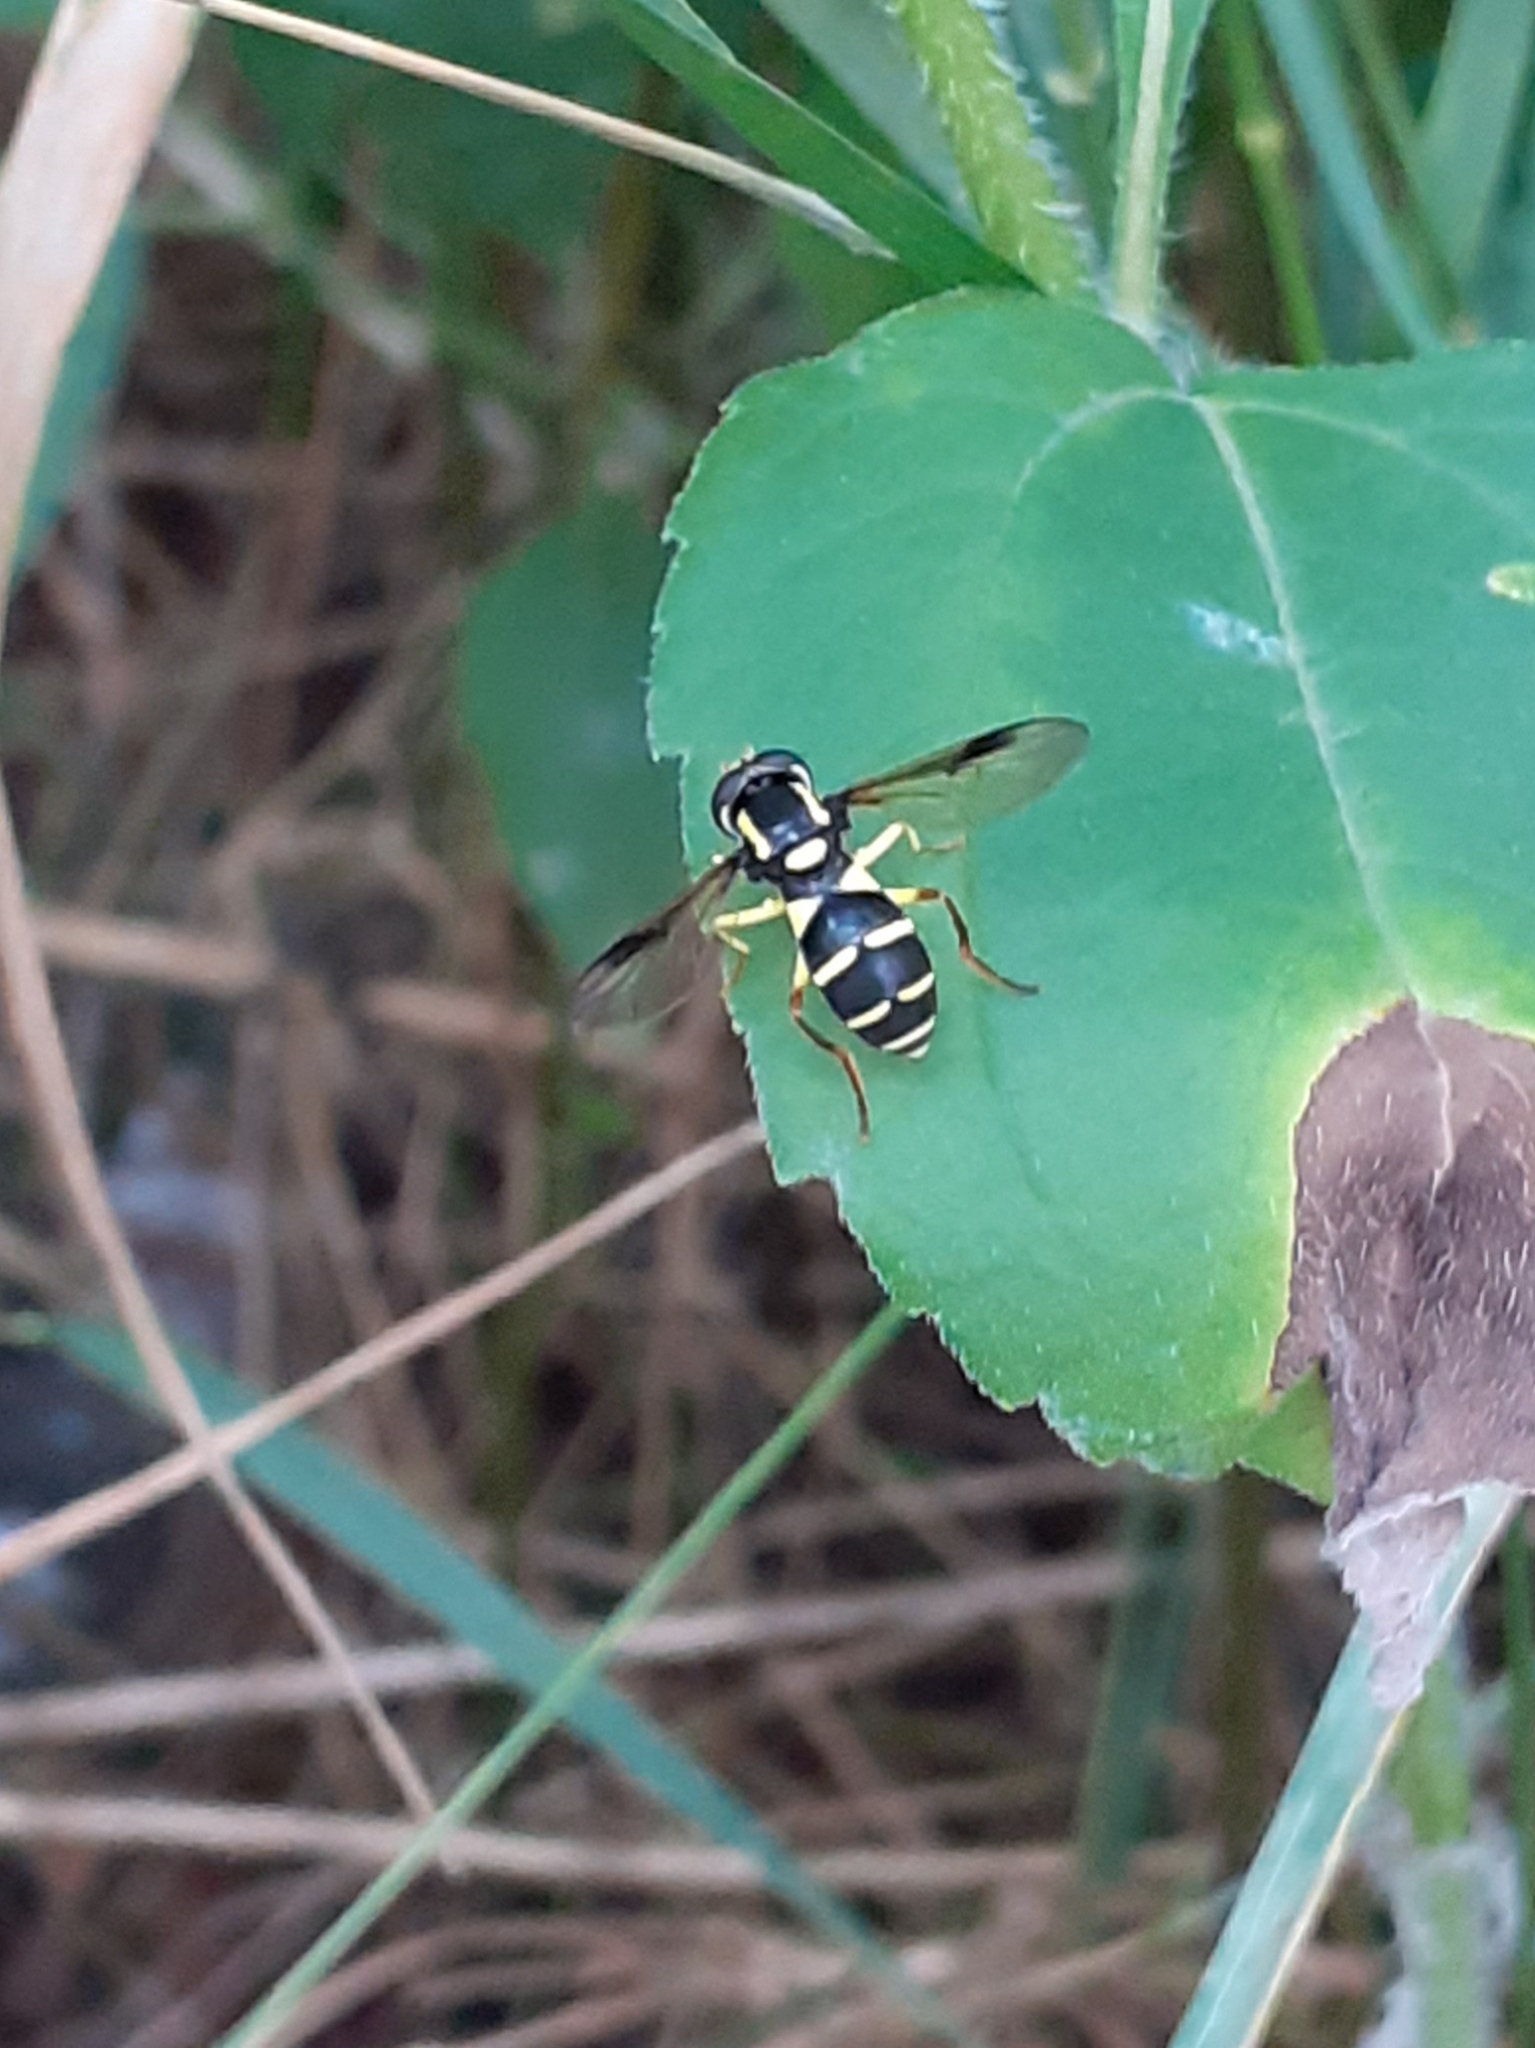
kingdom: Animalia
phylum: Arthropoda
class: Insecta
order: Diptera
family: Syrphidae
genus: Philhelius
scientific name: Philhelius pedissequum
